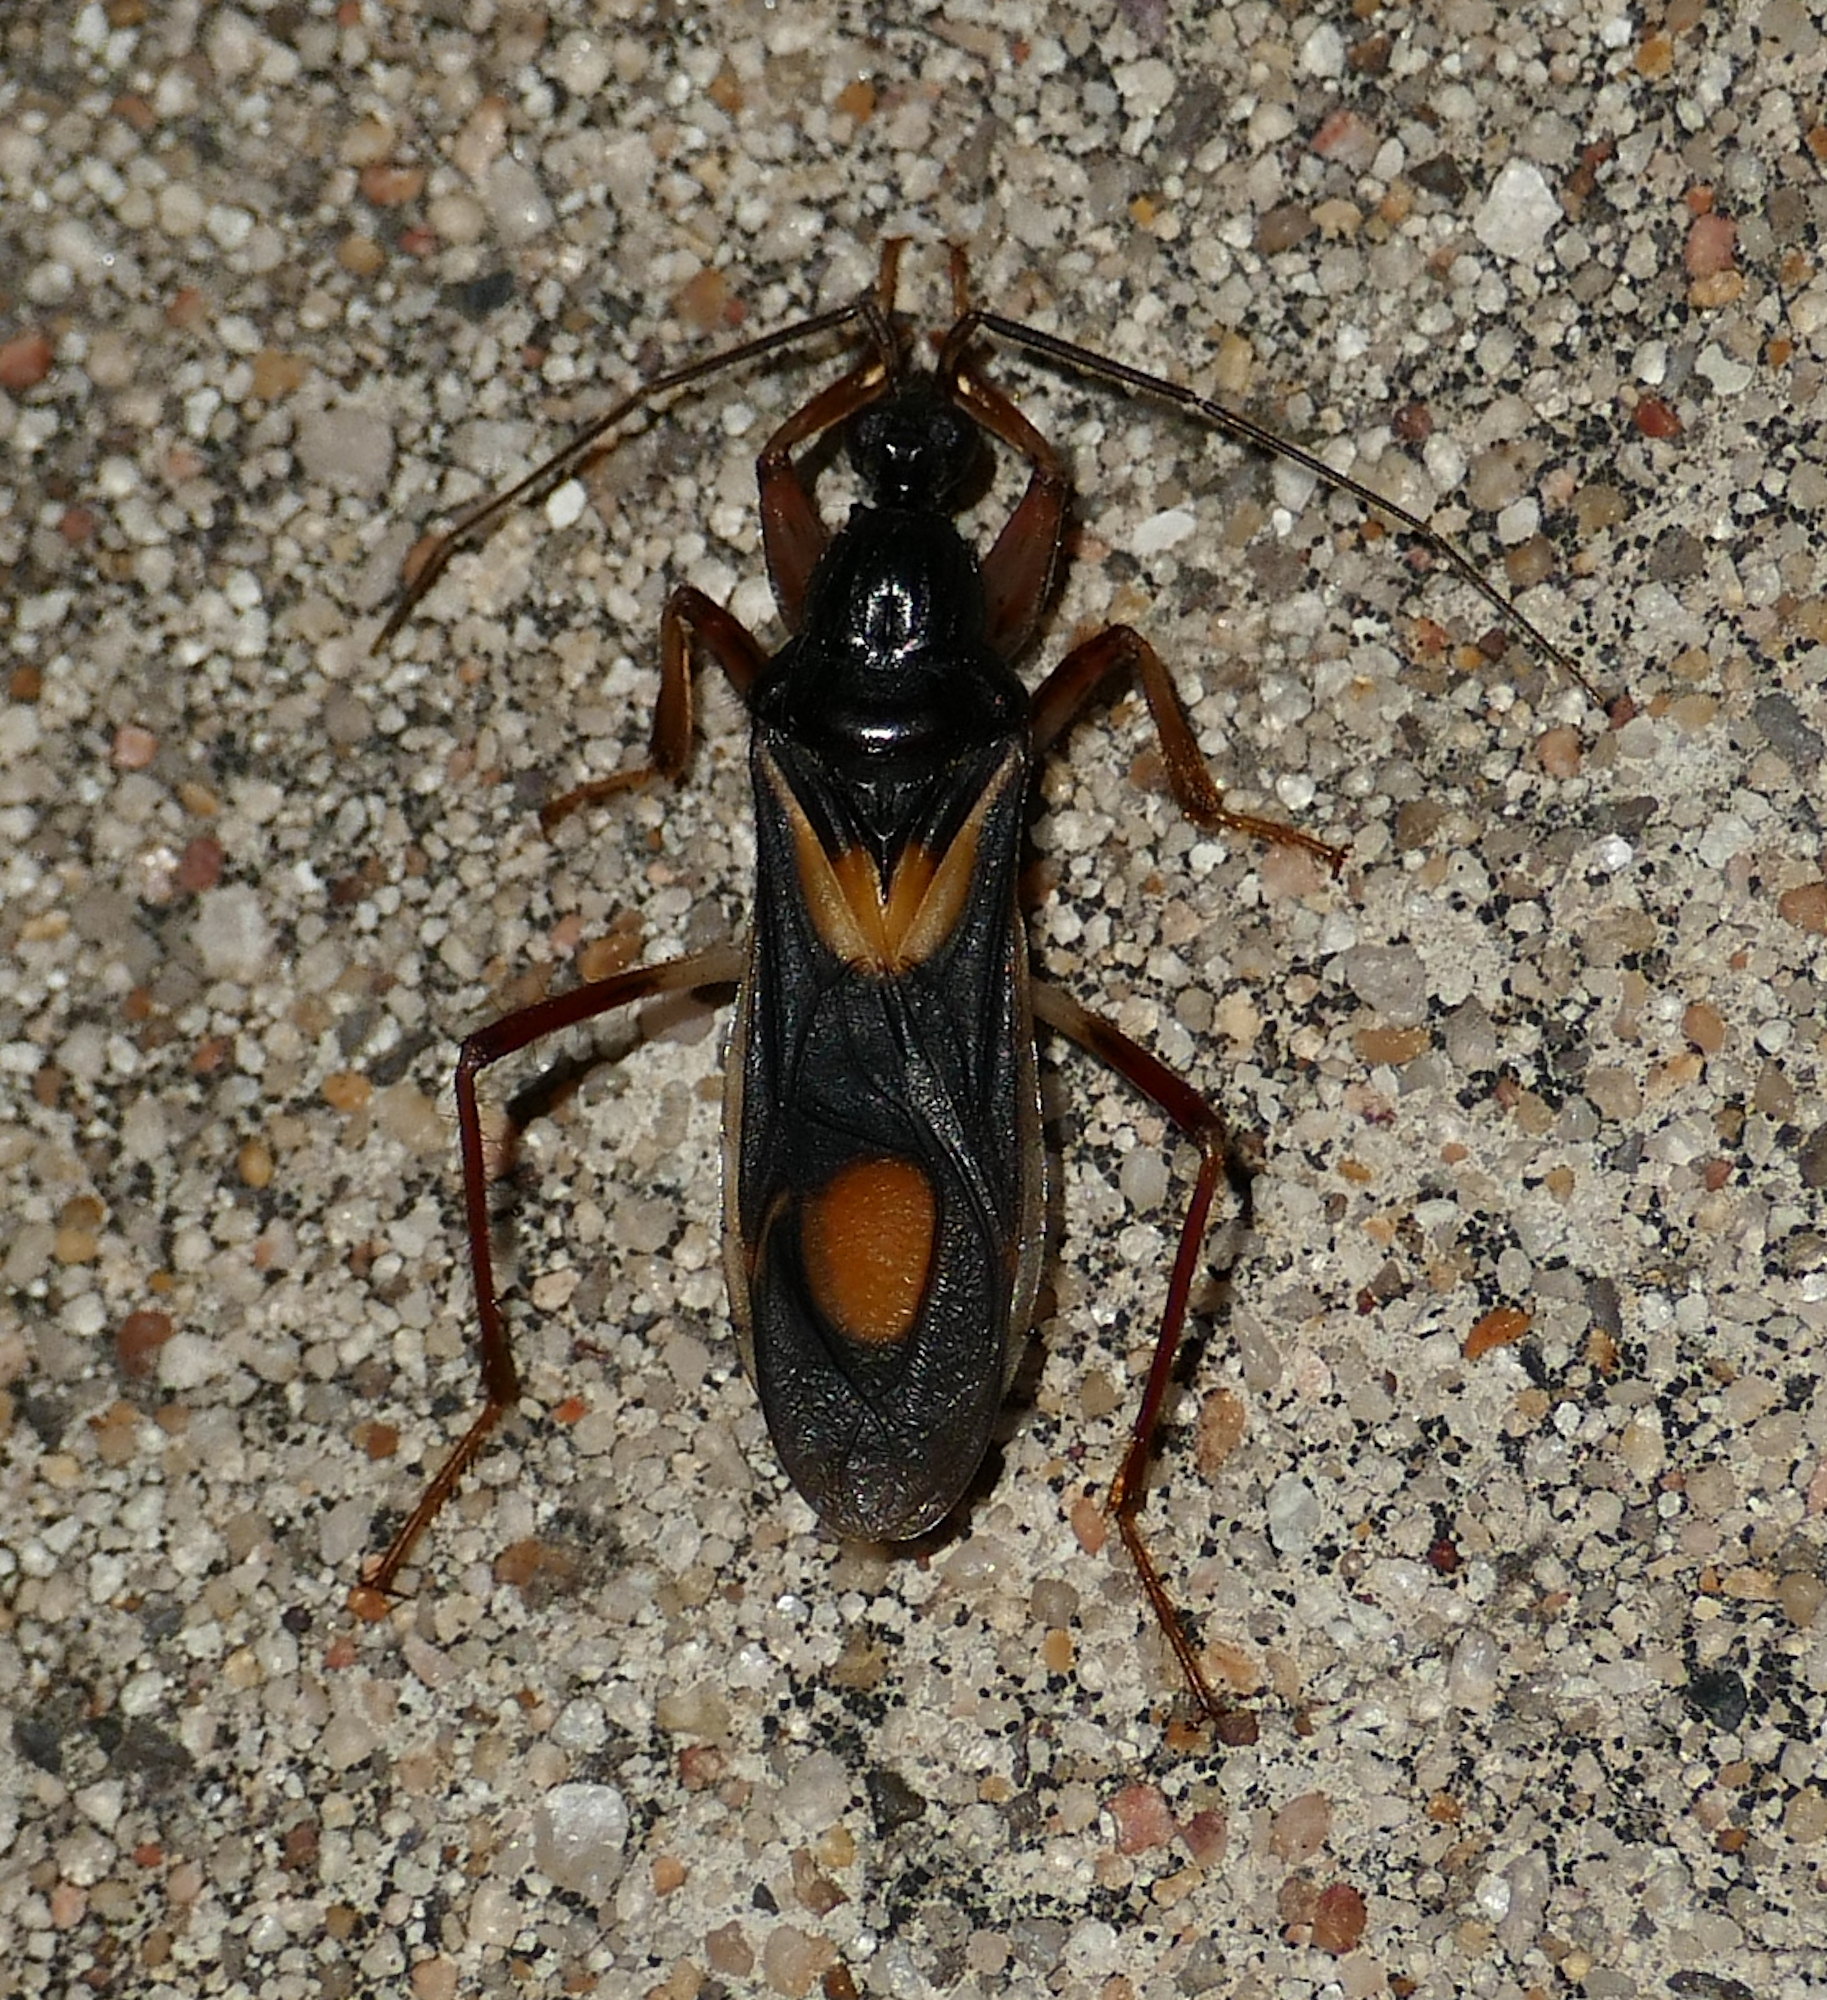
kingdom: Animalia
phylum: Arthropoda
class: Insecta
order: Hemiptera
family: Reduviidae
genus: Rasahus
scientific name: Rasahus hamatus
